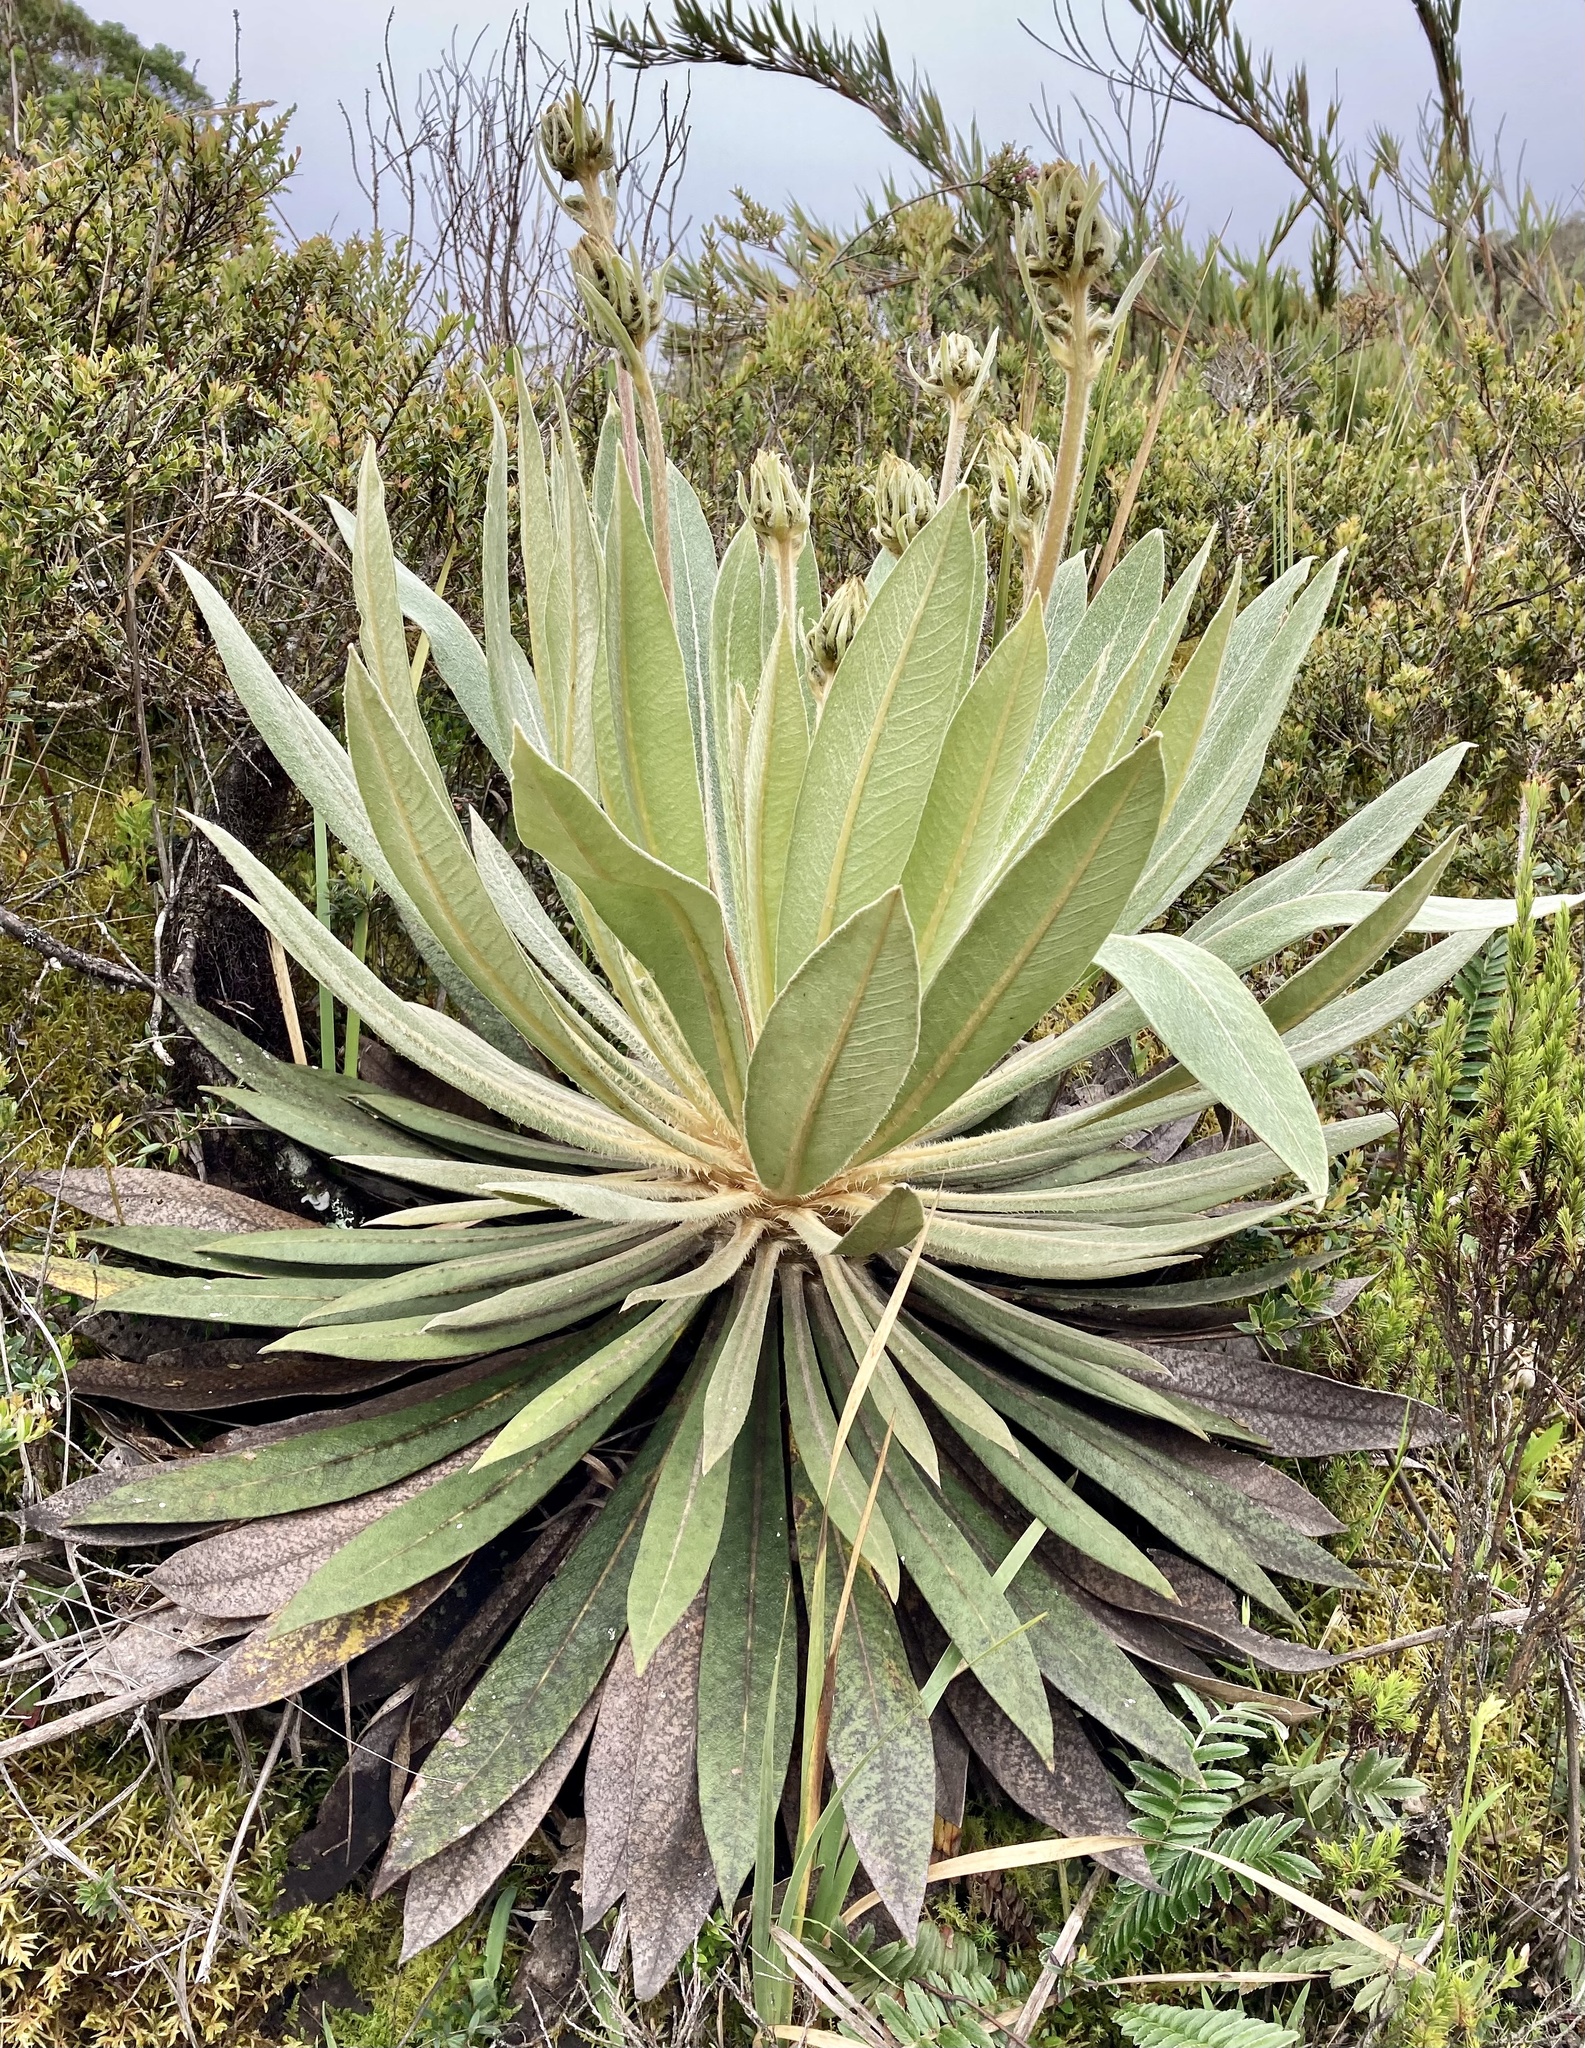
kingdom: Plantae
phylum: Tracheophyta
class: Magnoliopsida
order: Asterales
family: Asteraceae
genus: Espeletia
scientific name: Espeletia corymbosa
